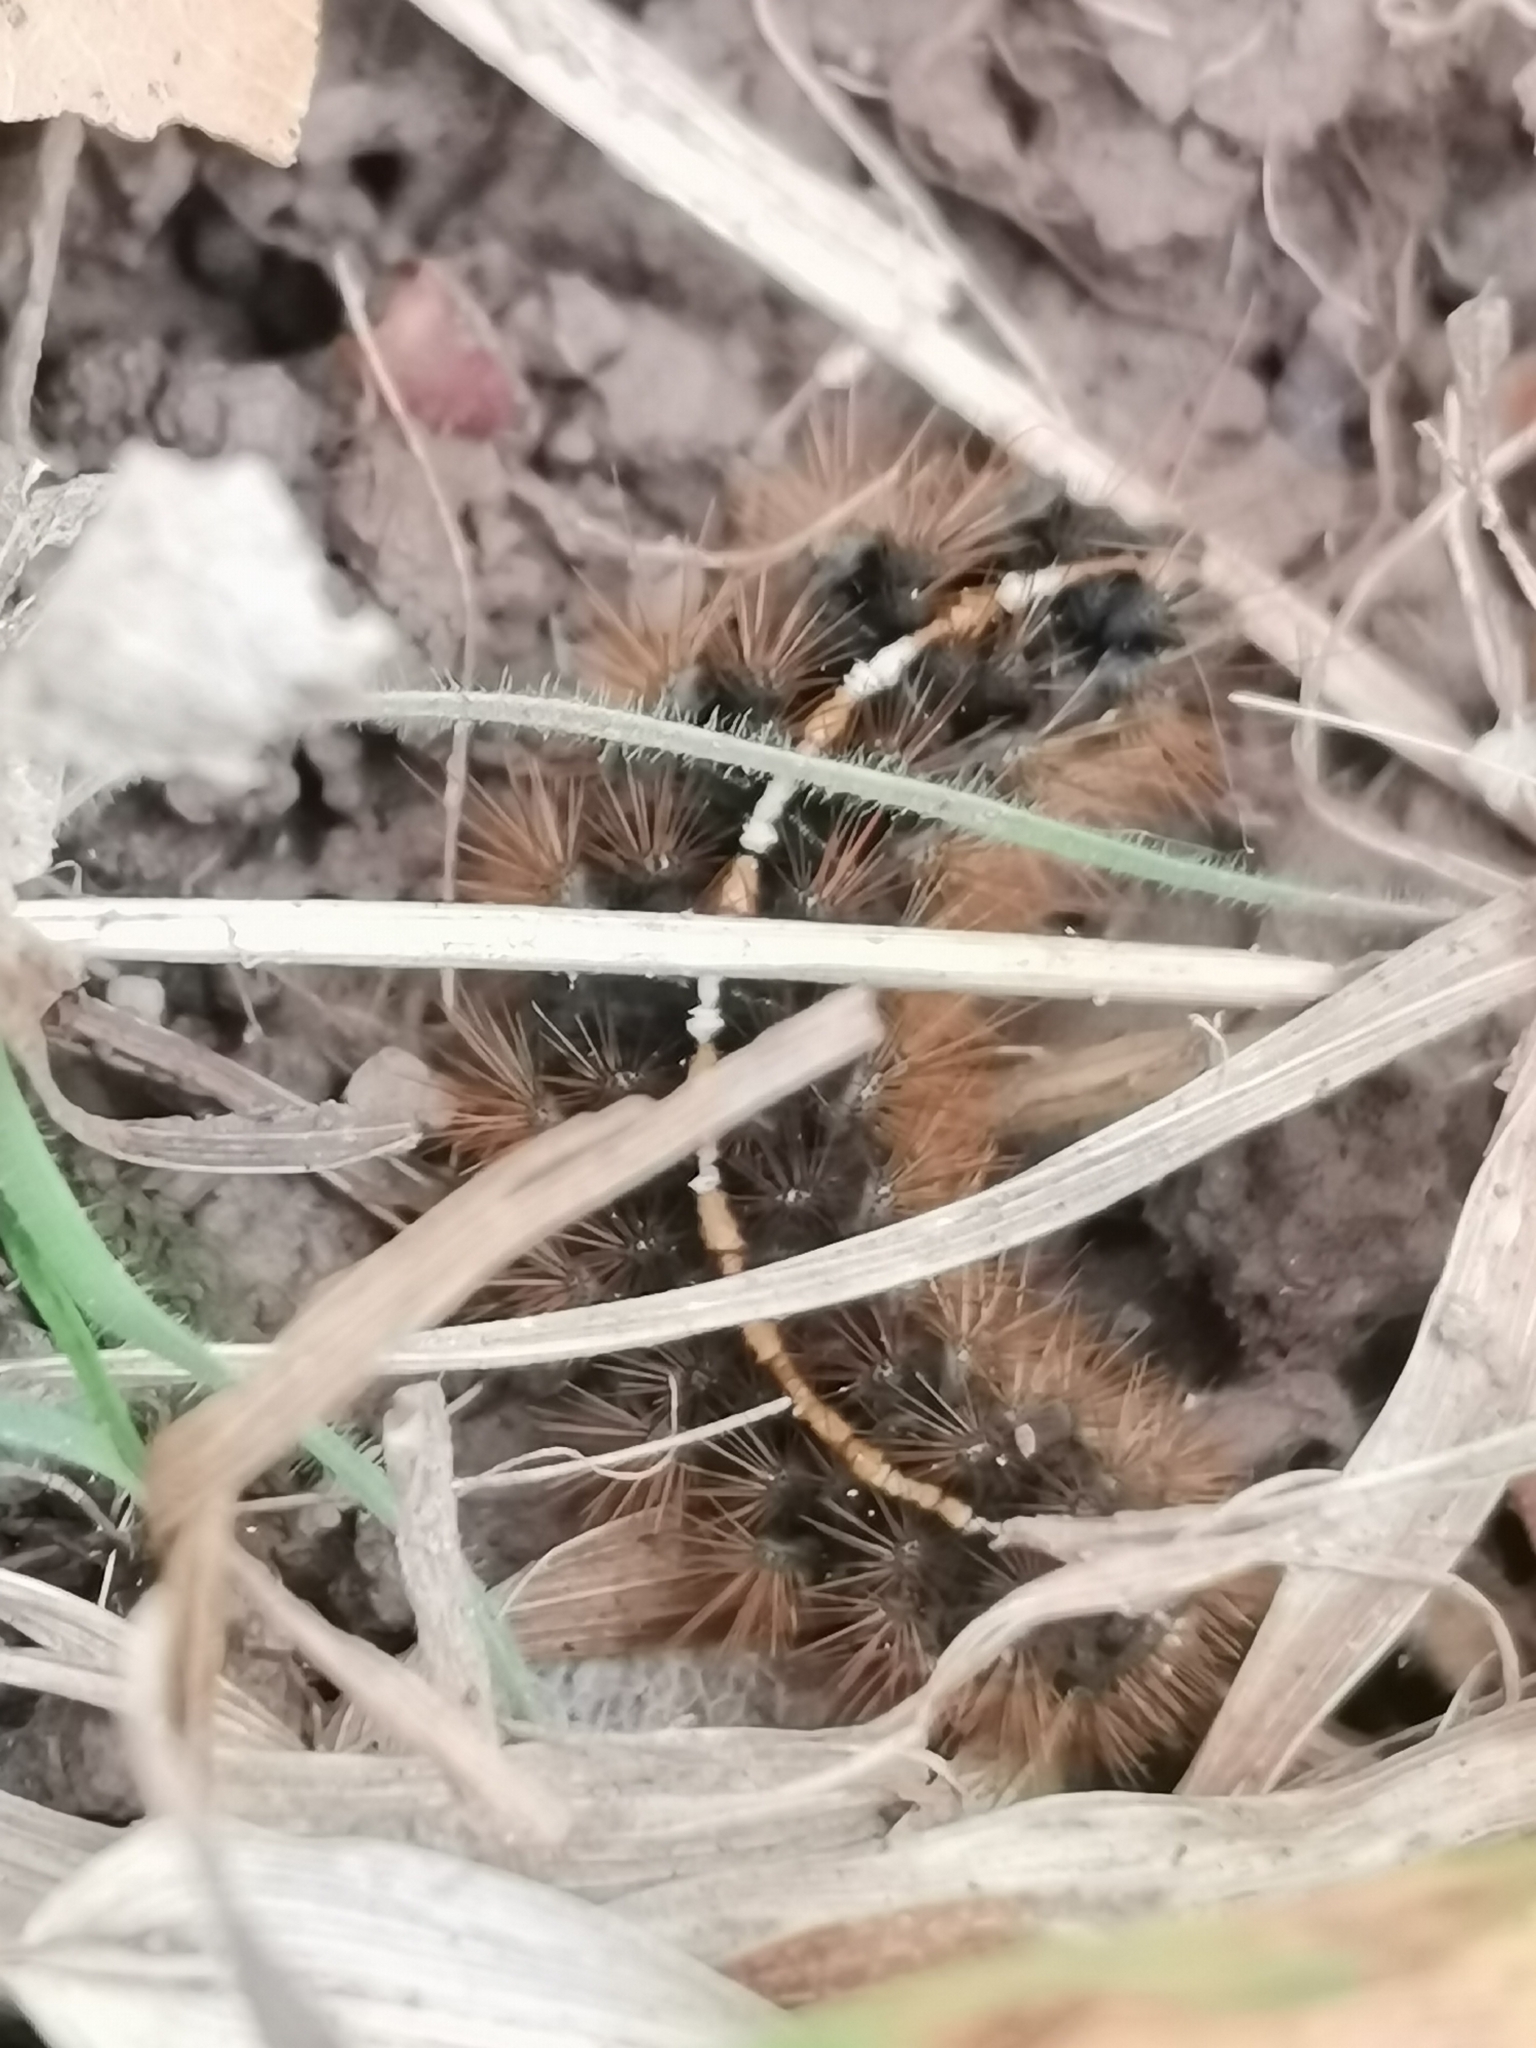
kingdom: Animalia
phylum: Arthropoda
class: Insecta
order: Lepidoptera
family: Erebidae
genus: Diacrisia
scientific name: Diacrisia sannio
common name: Clouded buff
